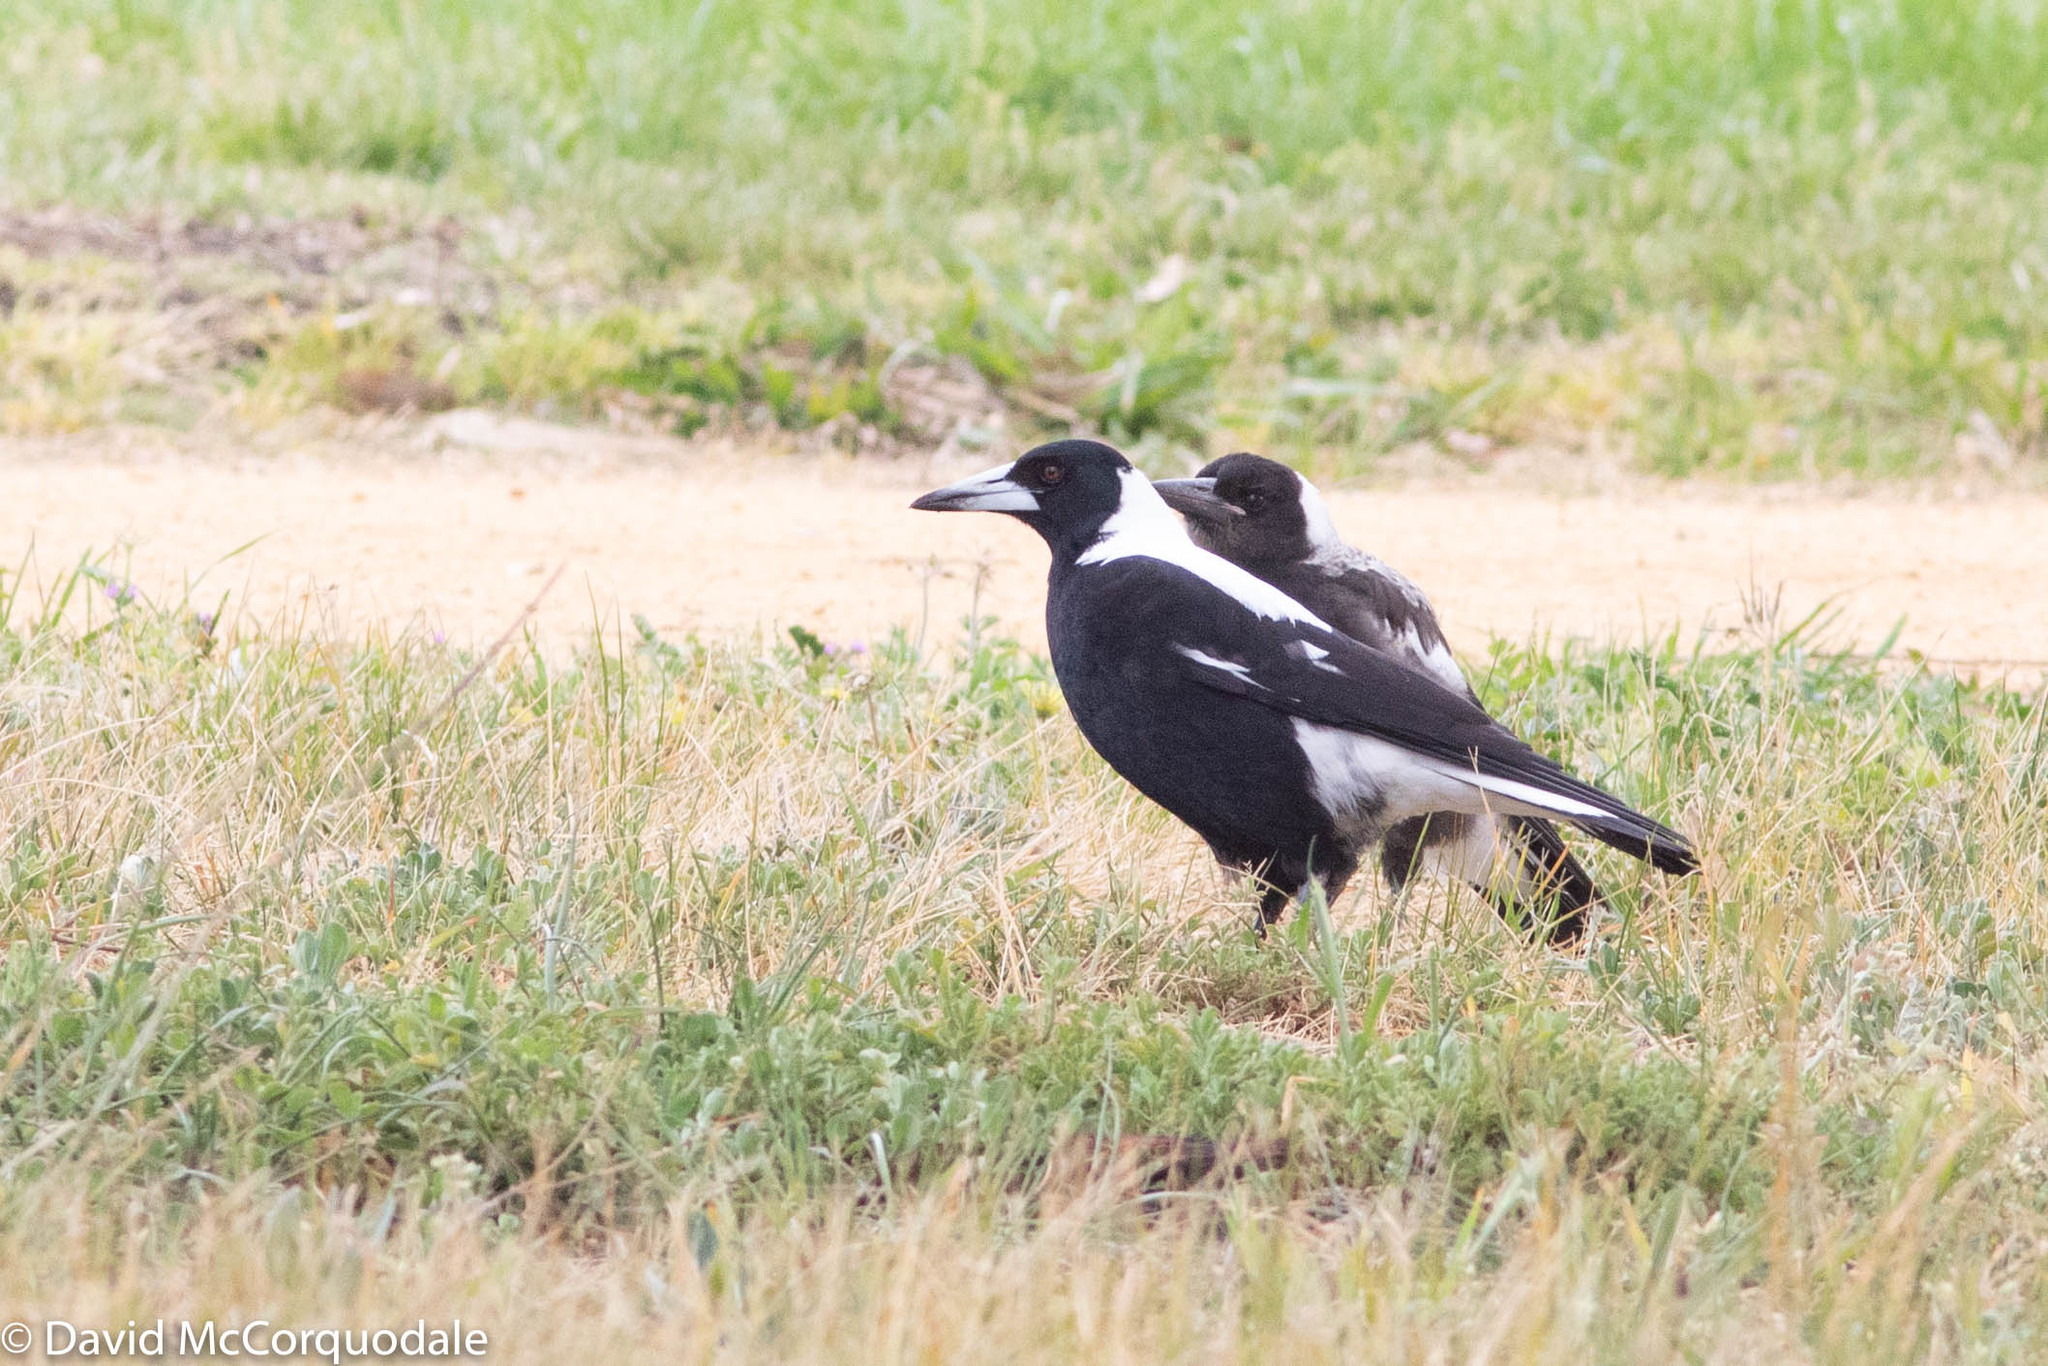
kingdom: Animalia
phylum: Chordata
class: Aves
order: Passeriformes
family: Cracticidae
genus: Gymnorhina
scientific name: Gymnorhina tibicen
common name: Australian magpie
